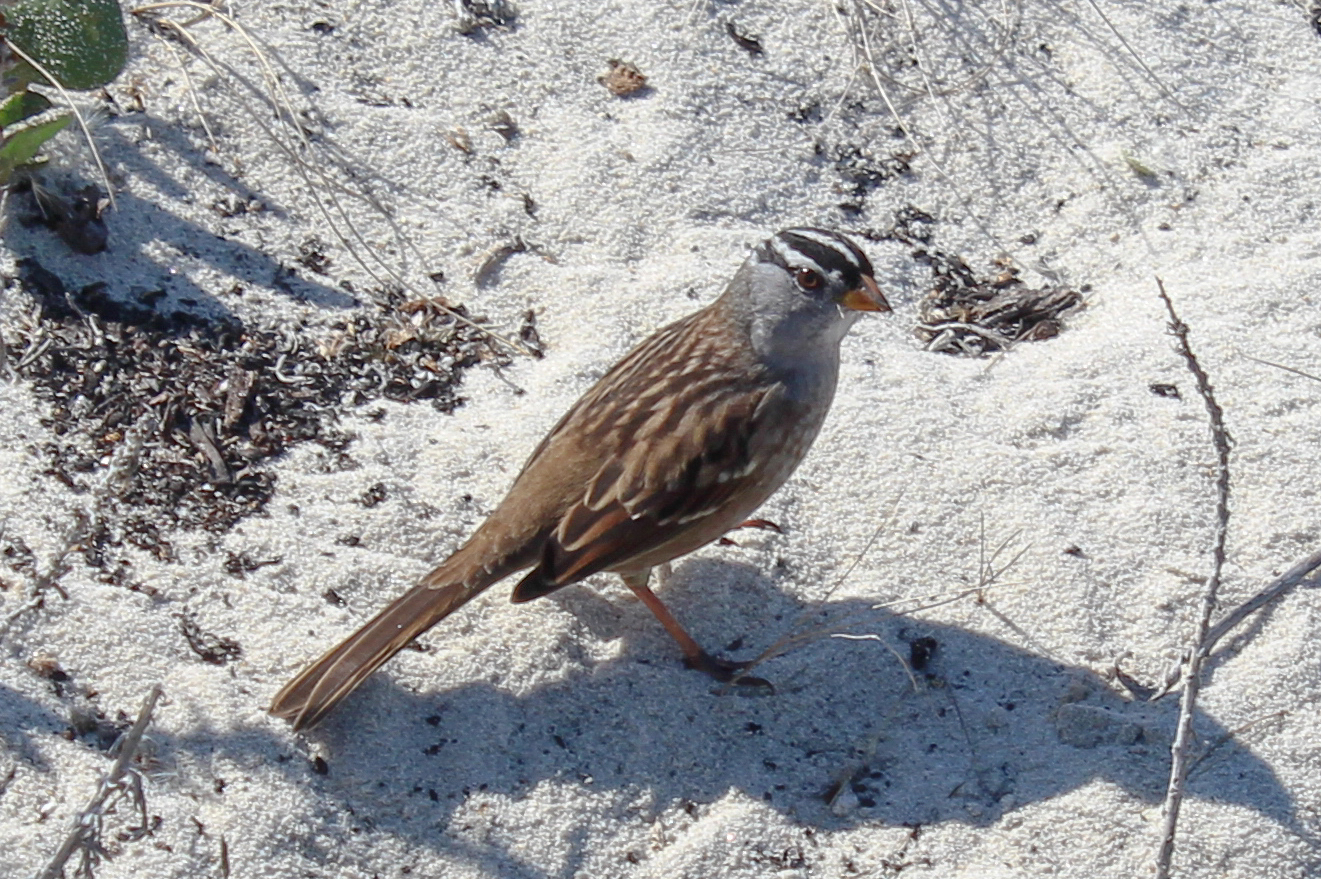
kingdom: Animalia
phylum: Chordata
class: Aves
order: Passeriformes
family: Passerellidae
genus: Zonotrichia
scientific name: Zonotrichia leucophrys
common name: White-crowned sparrow
